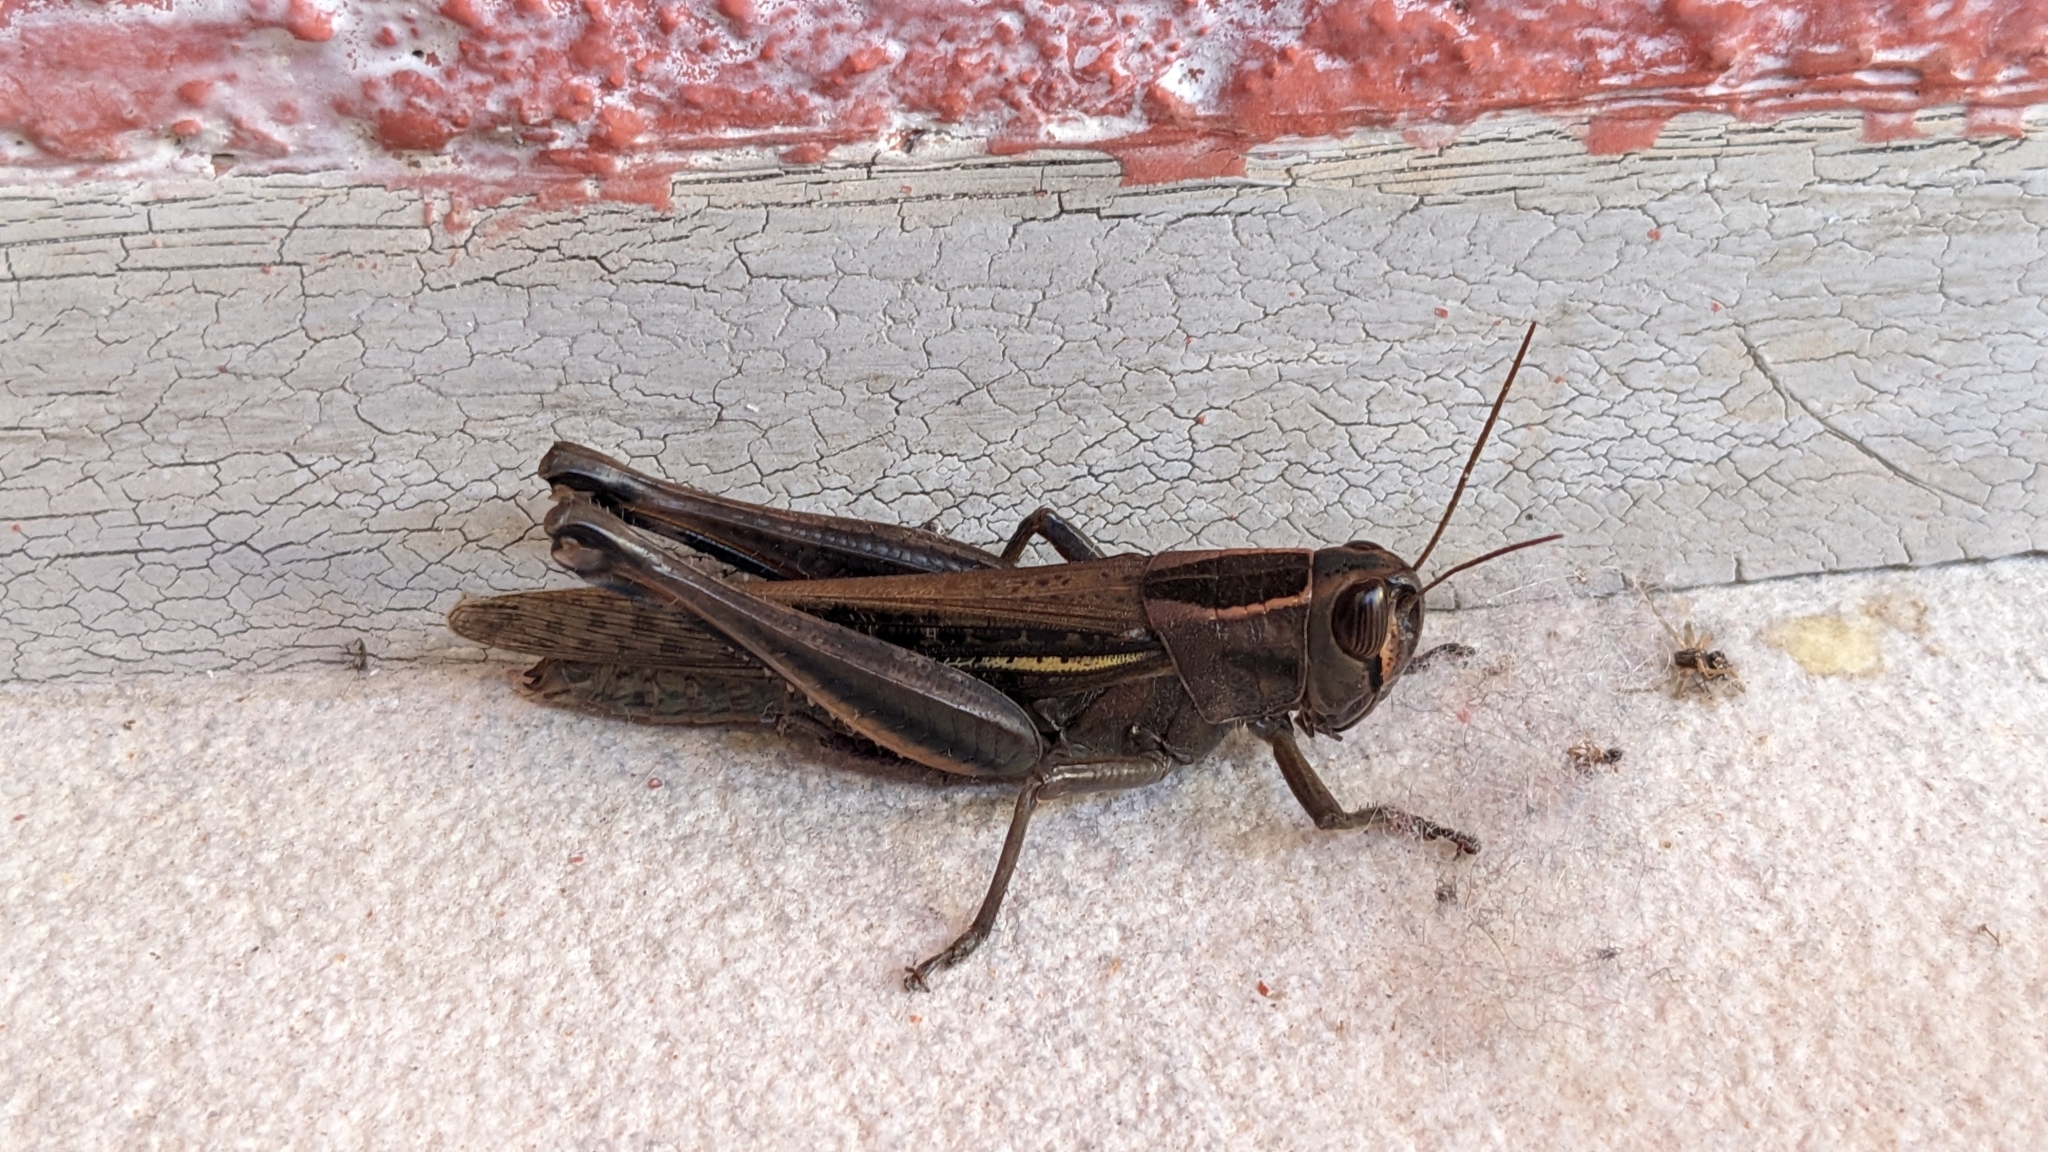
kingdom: Animalia
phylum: Arthropoda
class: Insecta
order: Orthoptera
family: Acrididae
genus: Eyprepocnemis
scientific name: Eyprepocnemis plorans
